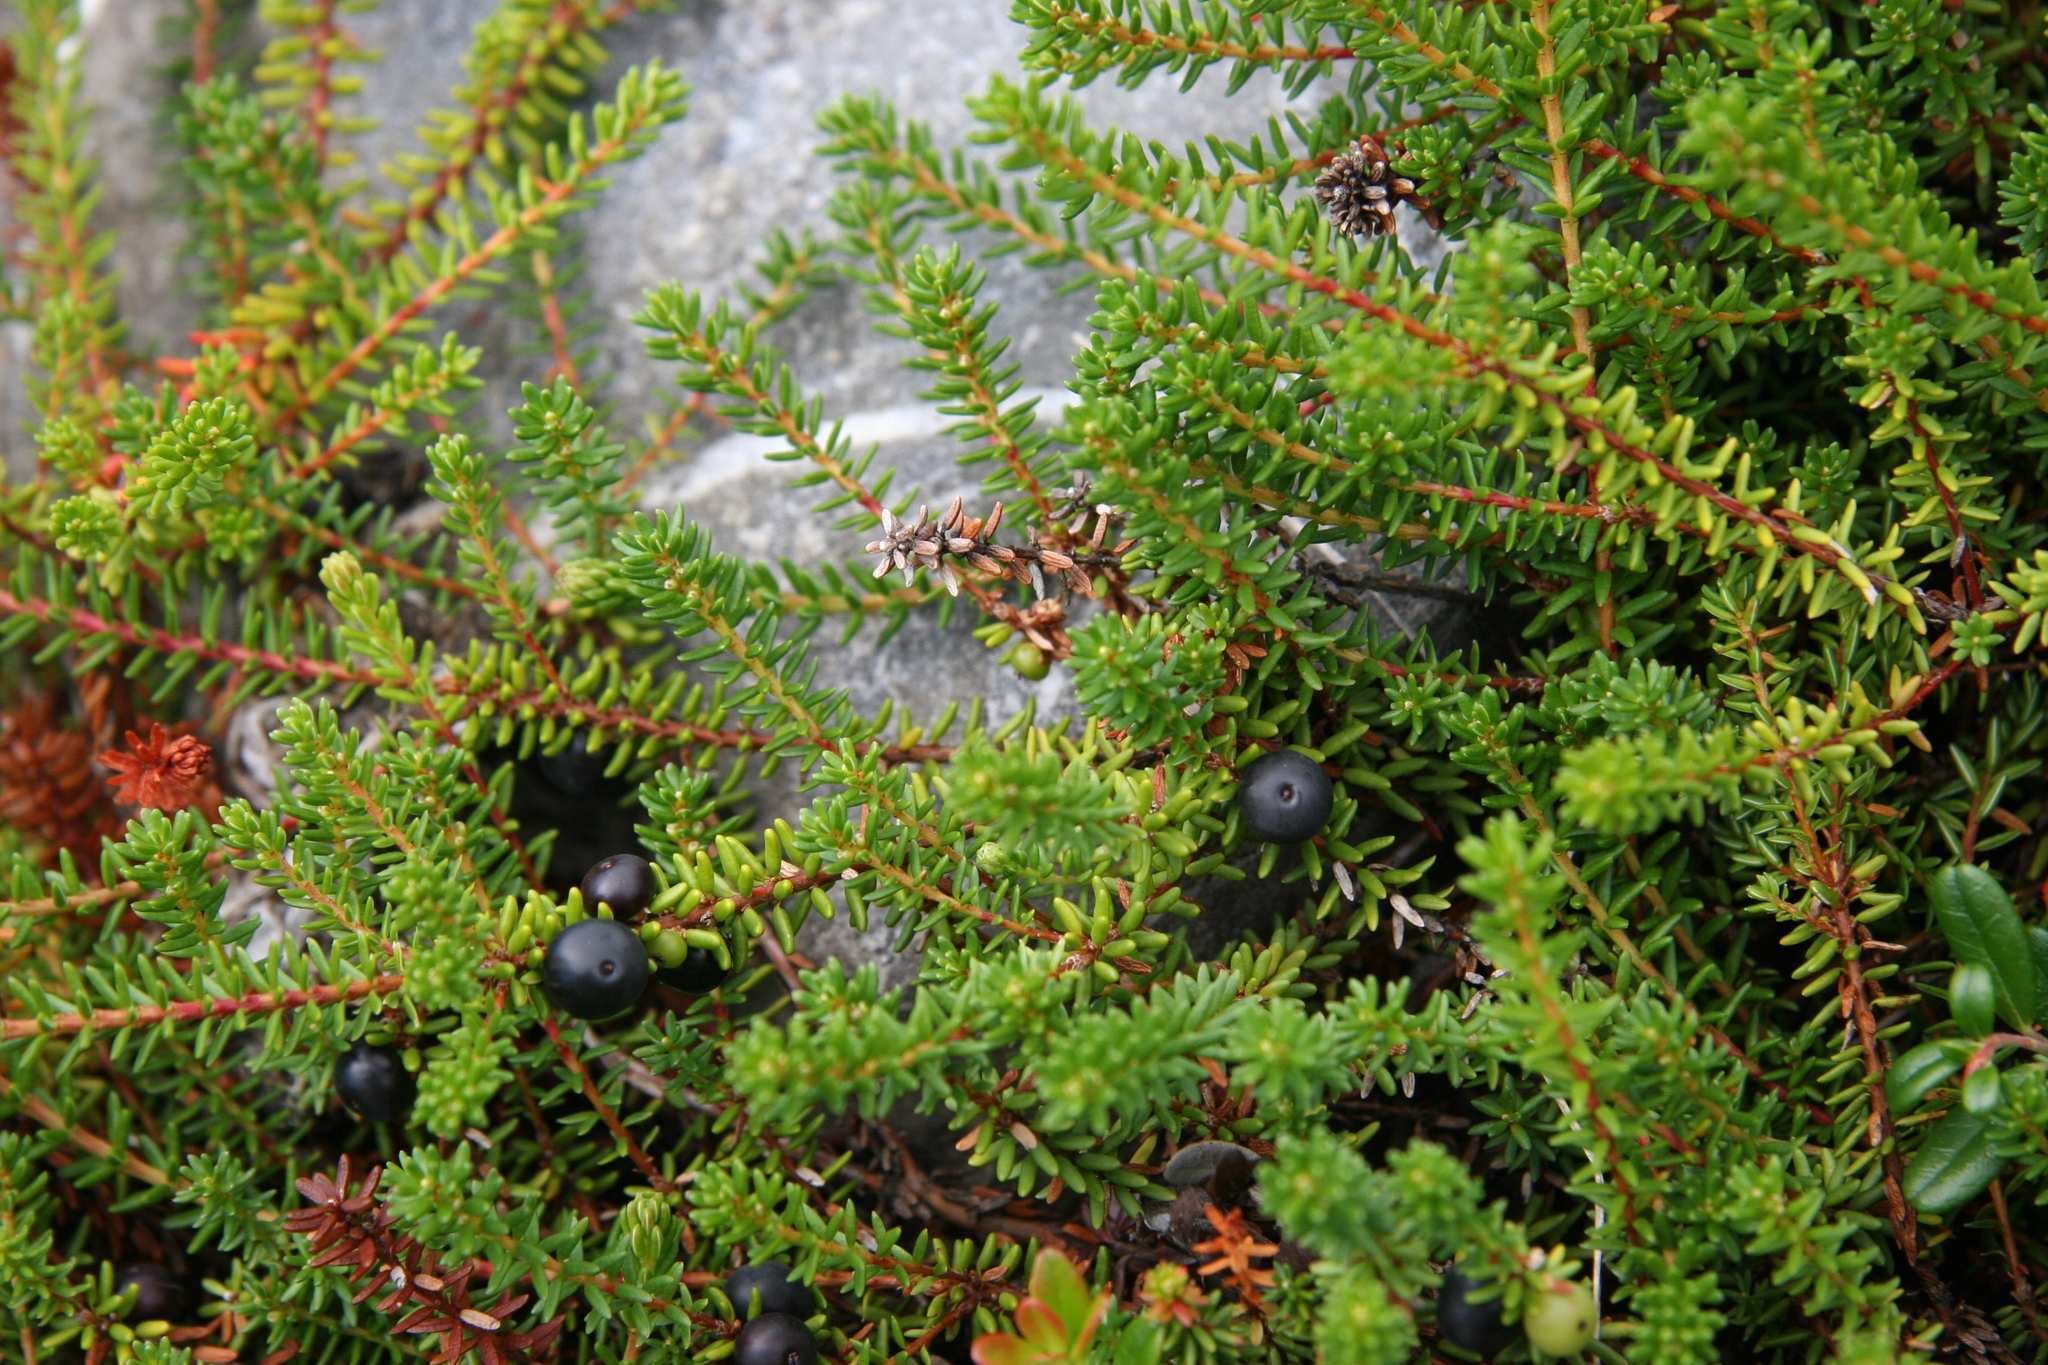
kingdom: Plantae
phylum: Tracheophyta
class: Magnoliopsida
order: Ericales
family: Ericaceae
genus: Empetrum
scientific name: Empetrum nigrum
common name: Black crowberry
